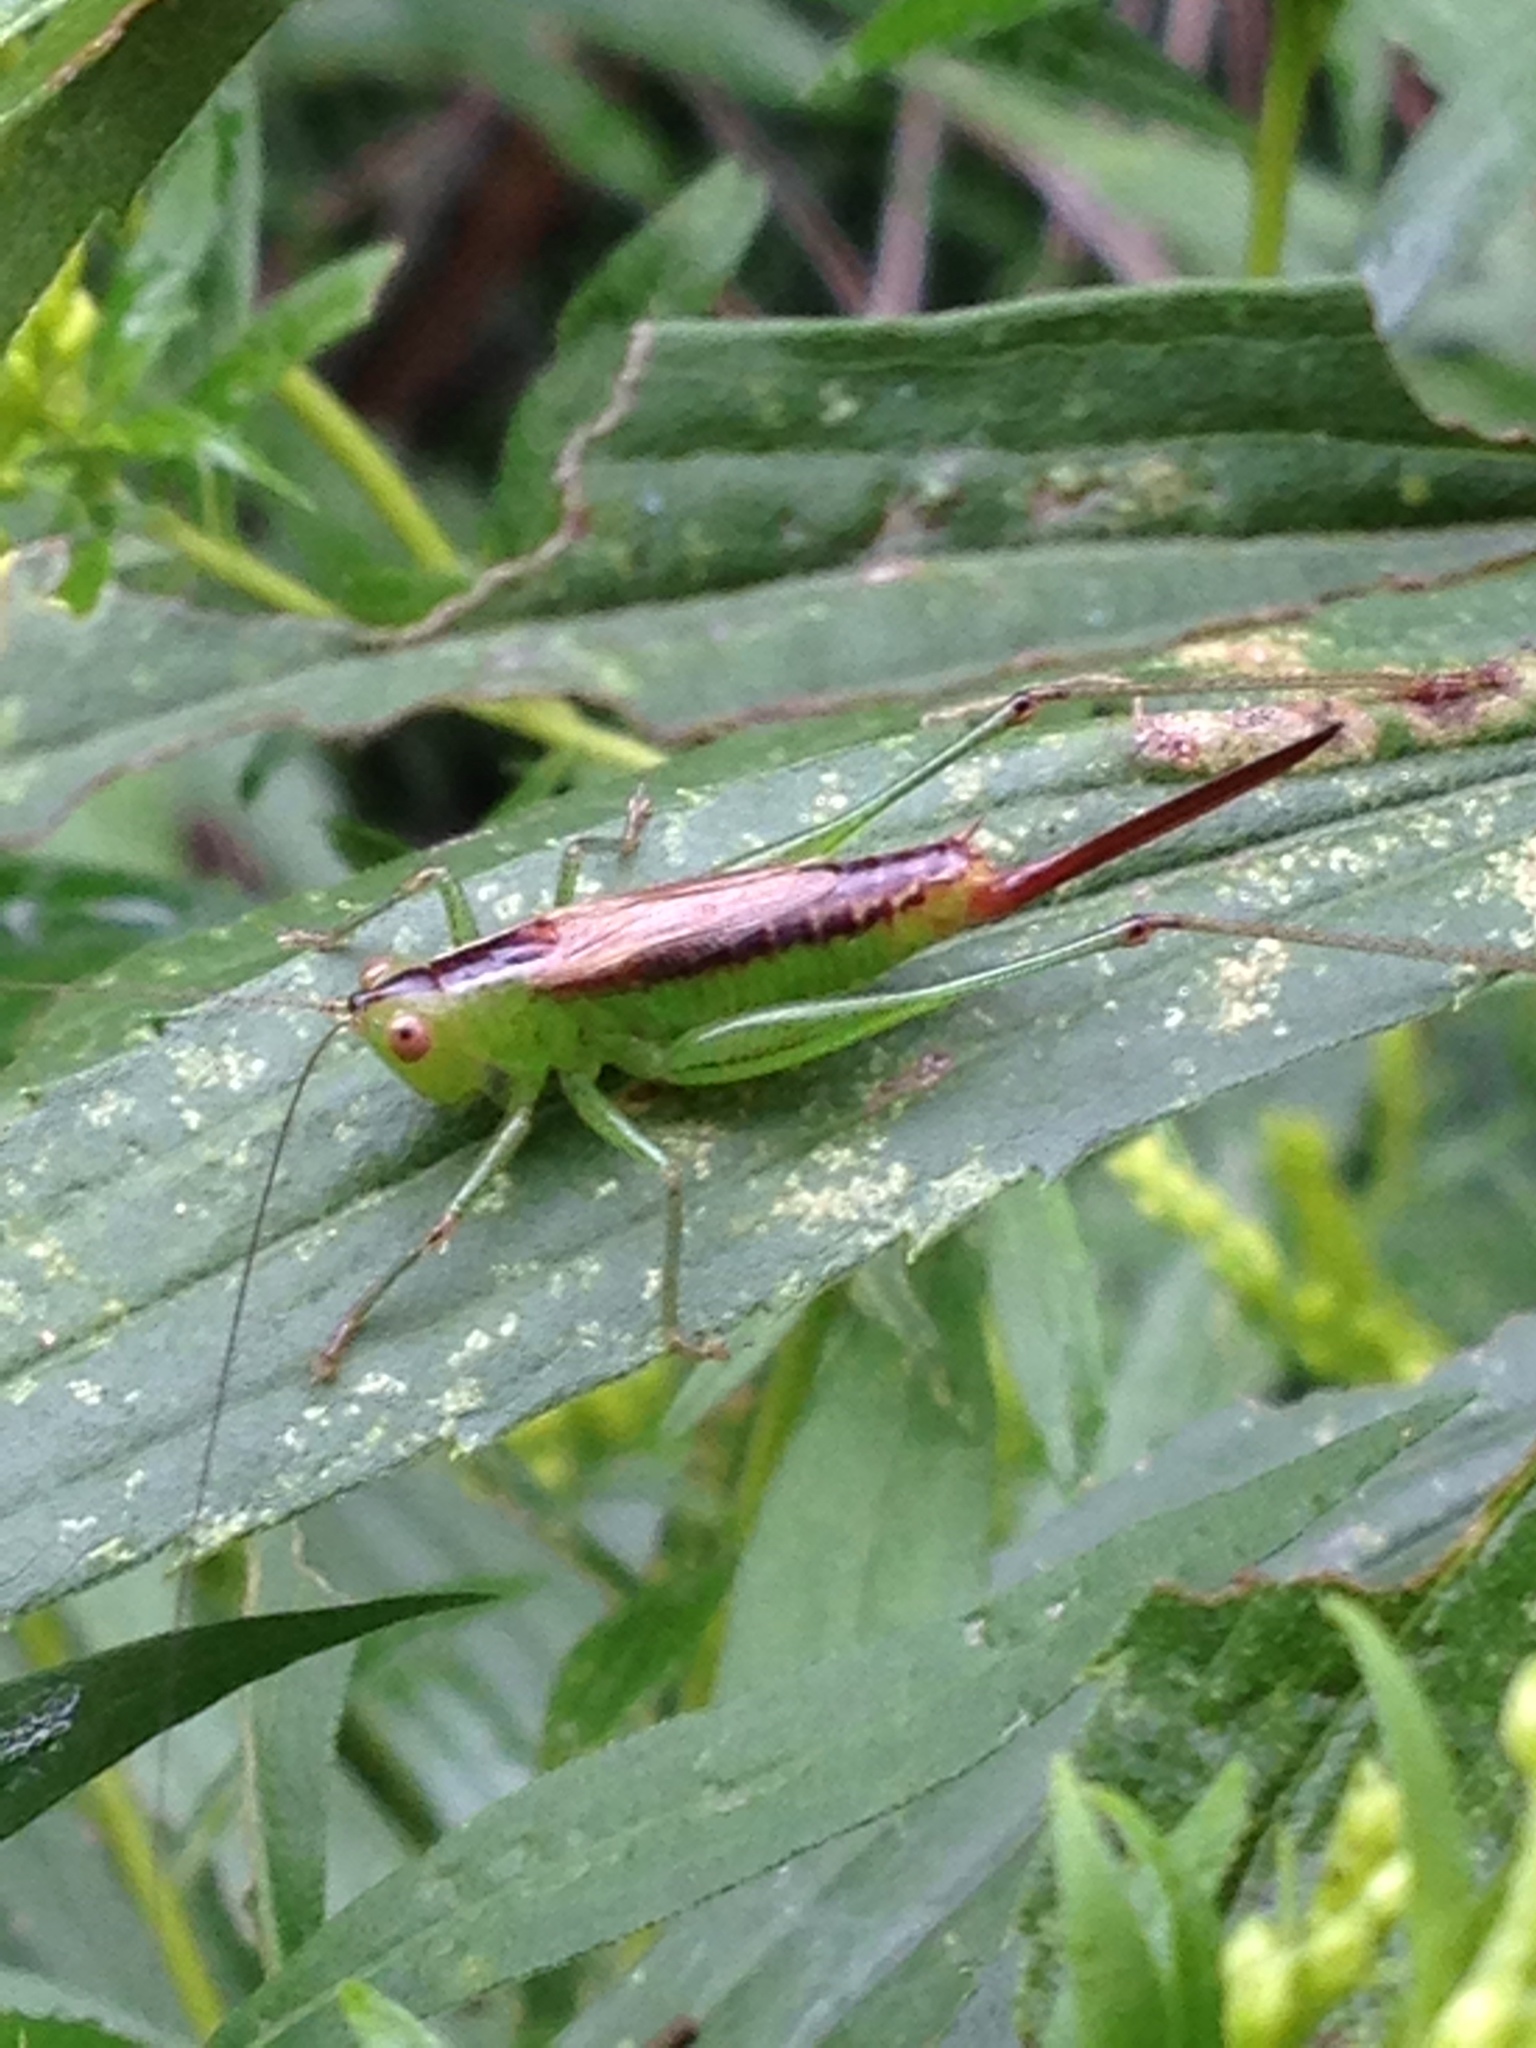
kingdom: Animalia
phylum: Arthropoda
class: Insecta
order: Orthoptera
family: Tettigoniidae
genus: Conocephalus
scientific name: Conocephalus brevipennis
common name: Short-winged meadow katydid
